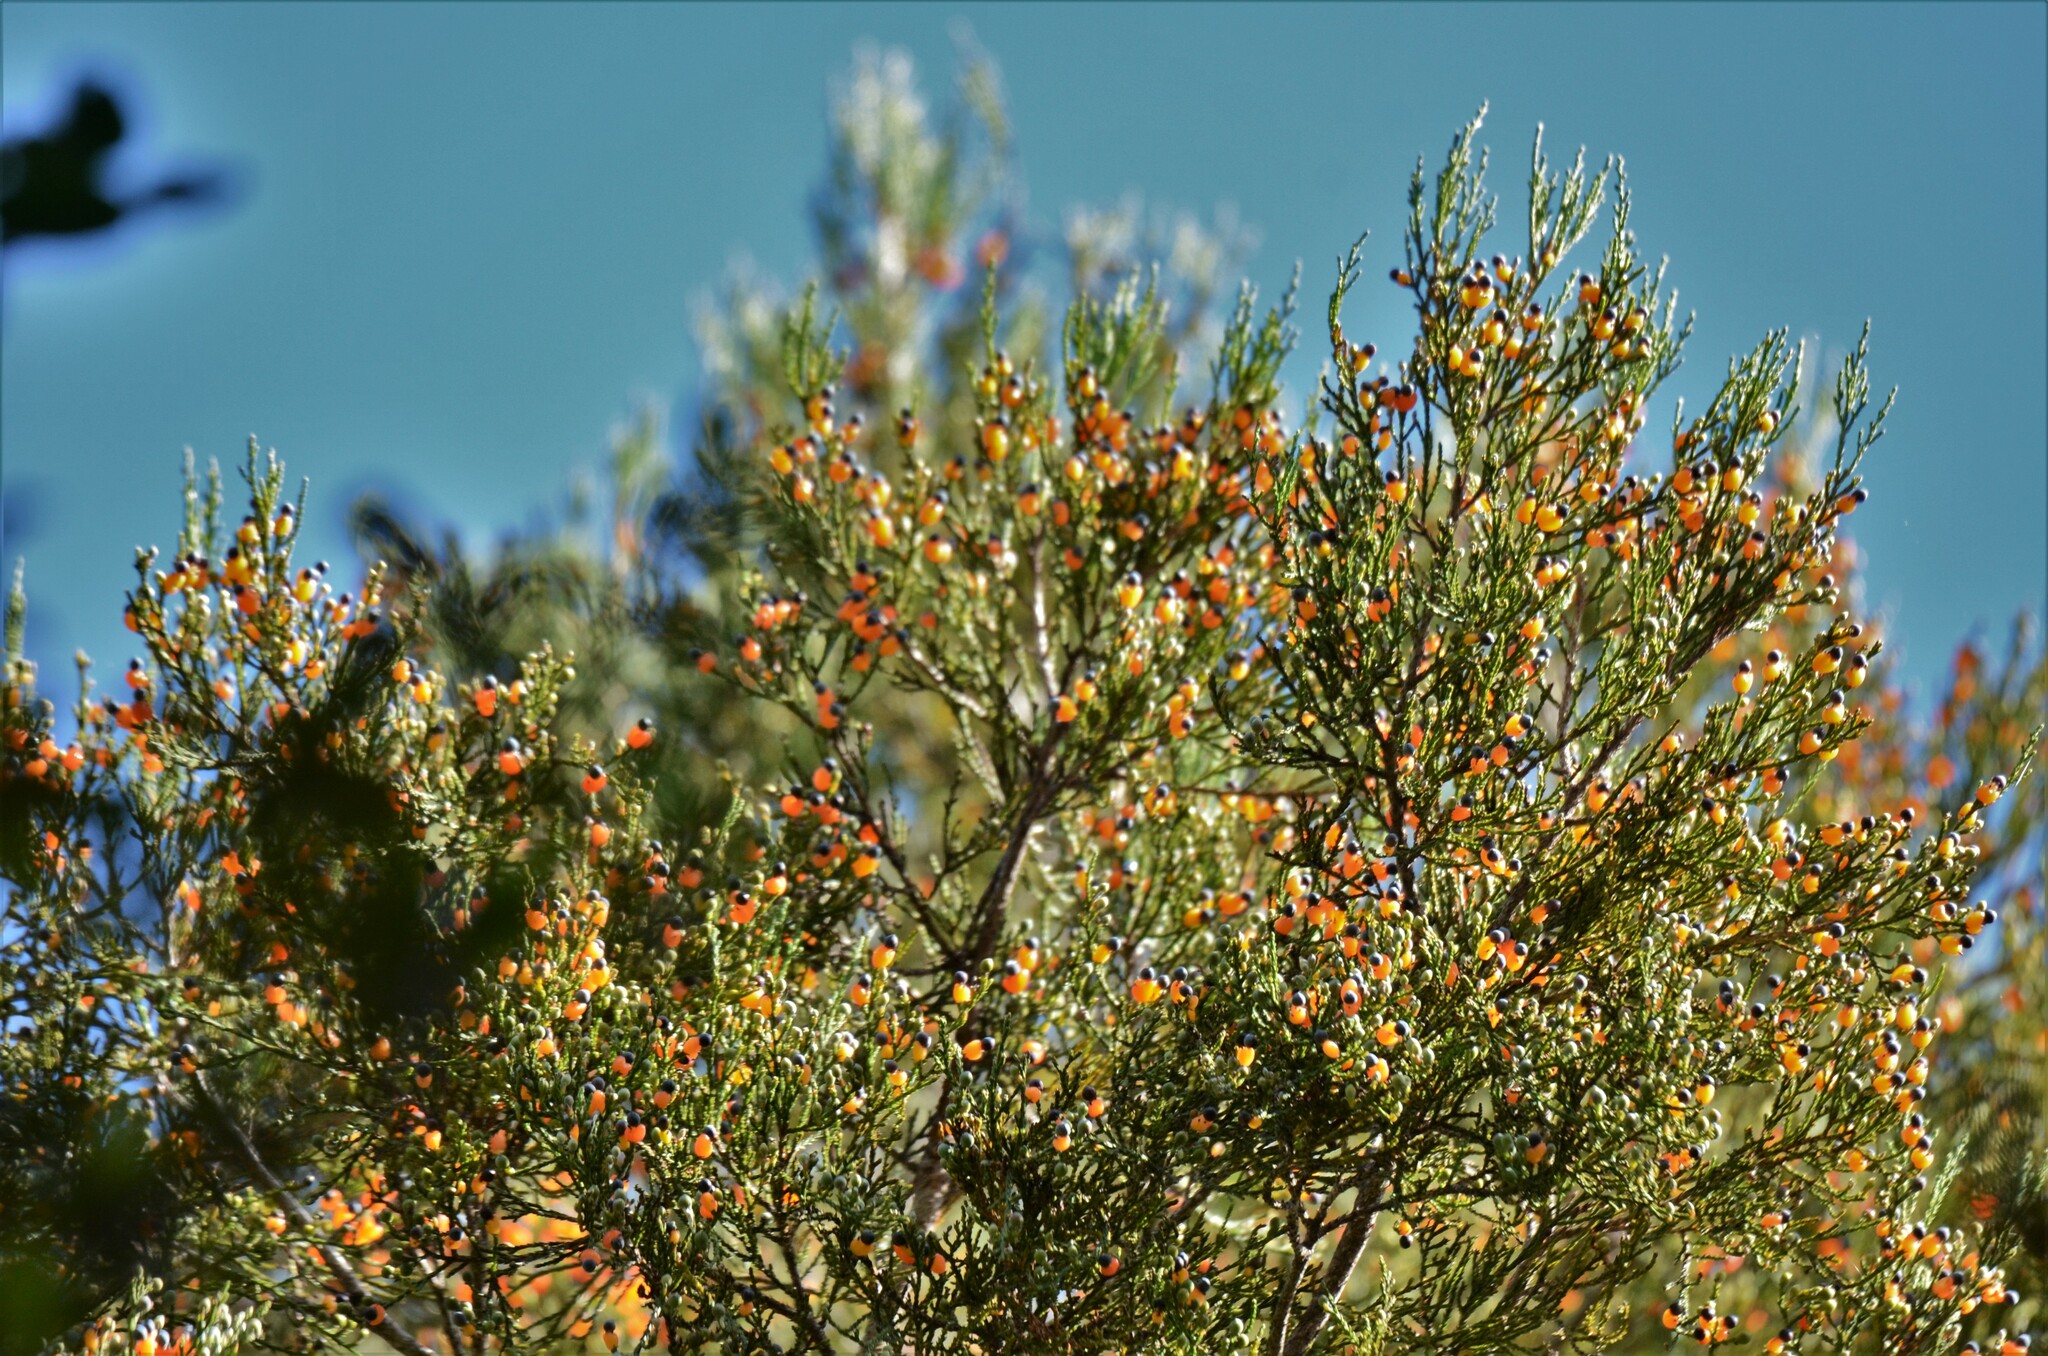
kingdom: Plantae
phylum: Tracheophyta
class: Pinopsida
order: Pinales
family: Podocarpaceae
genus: Dacrycarpus
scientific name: Dacrycarpus dacrydioides
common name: White pine
